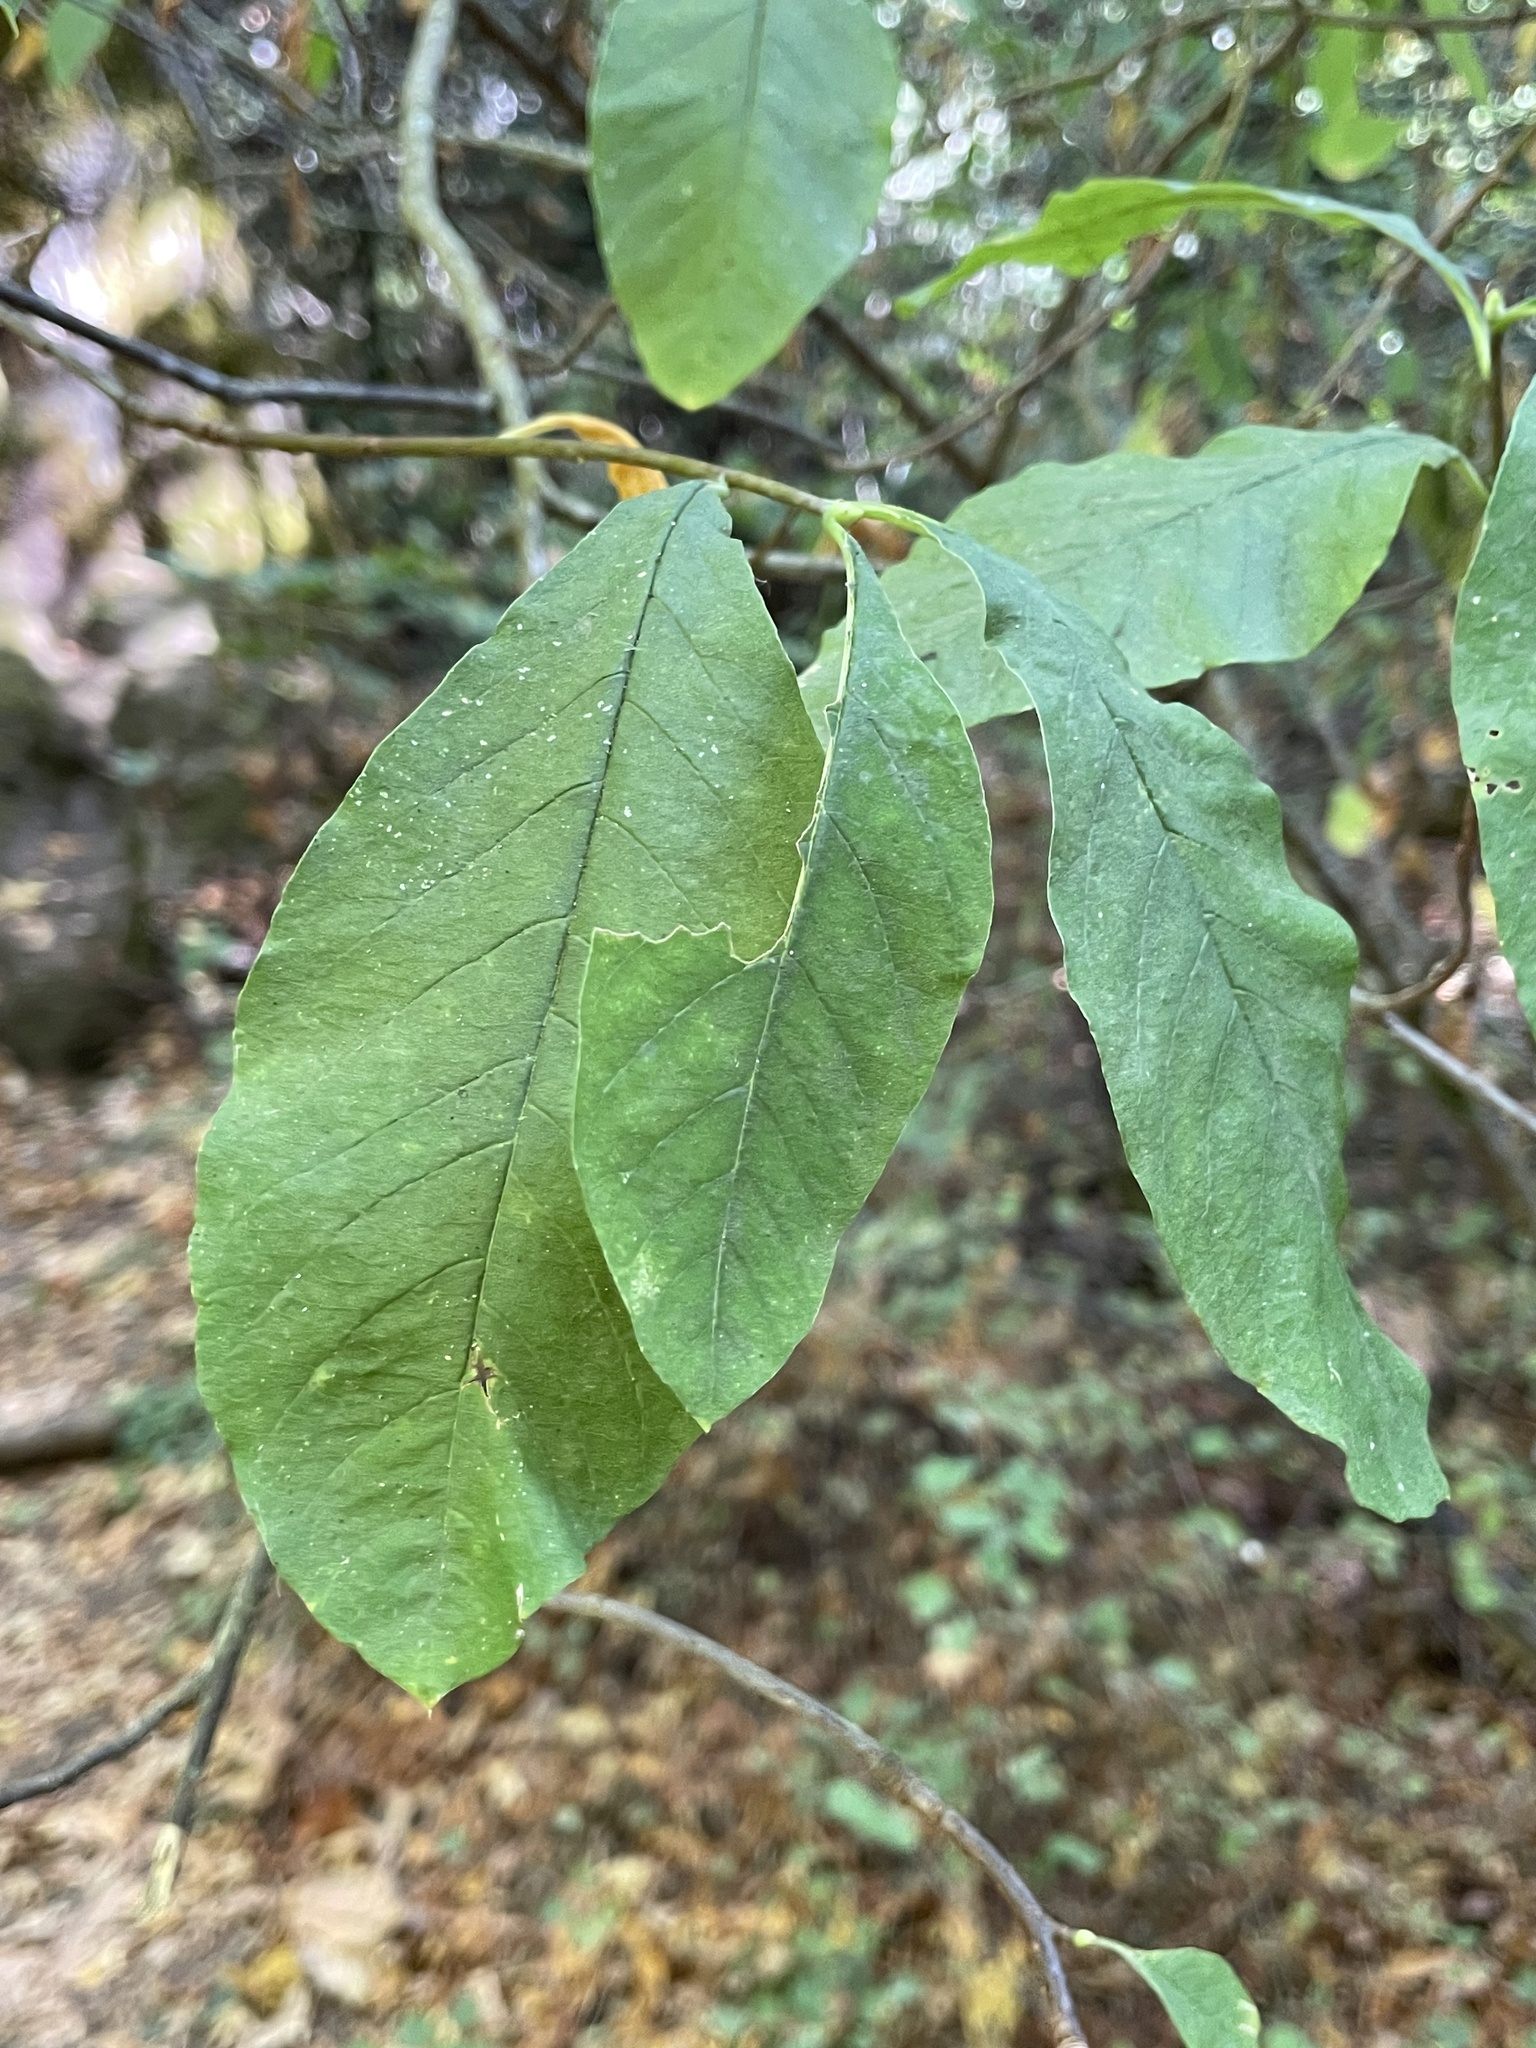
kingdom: Plantae
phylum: Tracheophyta
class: Magnoliopsida
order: Rosales
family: Rosaceae
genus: Oemleria
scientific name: Oemleria cerasiformis
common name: Osoberry
